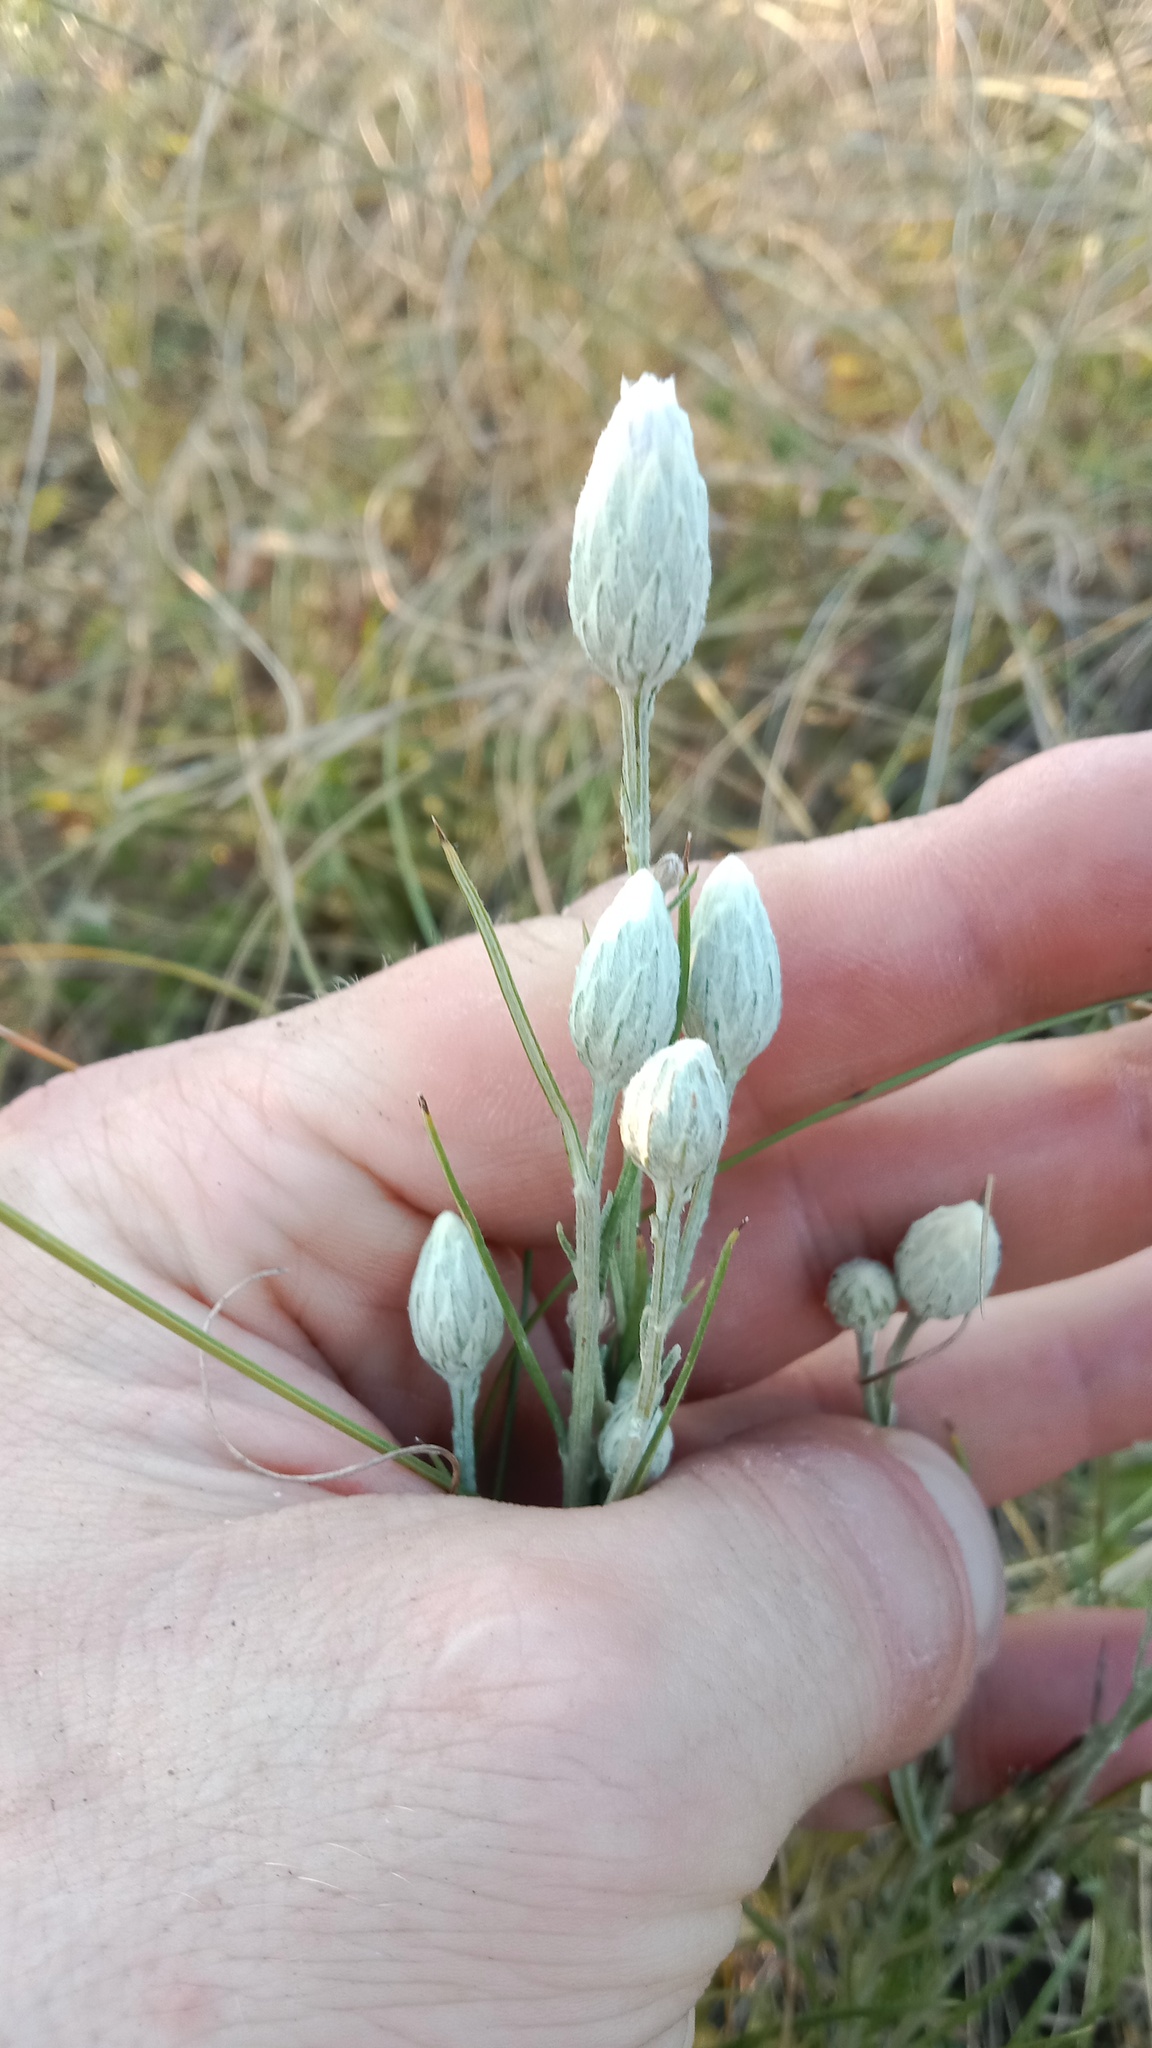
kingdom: Plantae
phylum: Tracheophyta
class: Magnoliopsida
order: Asterales
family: Asteraceae
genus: Jurinea
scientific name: Jurinea stoechadifolia
